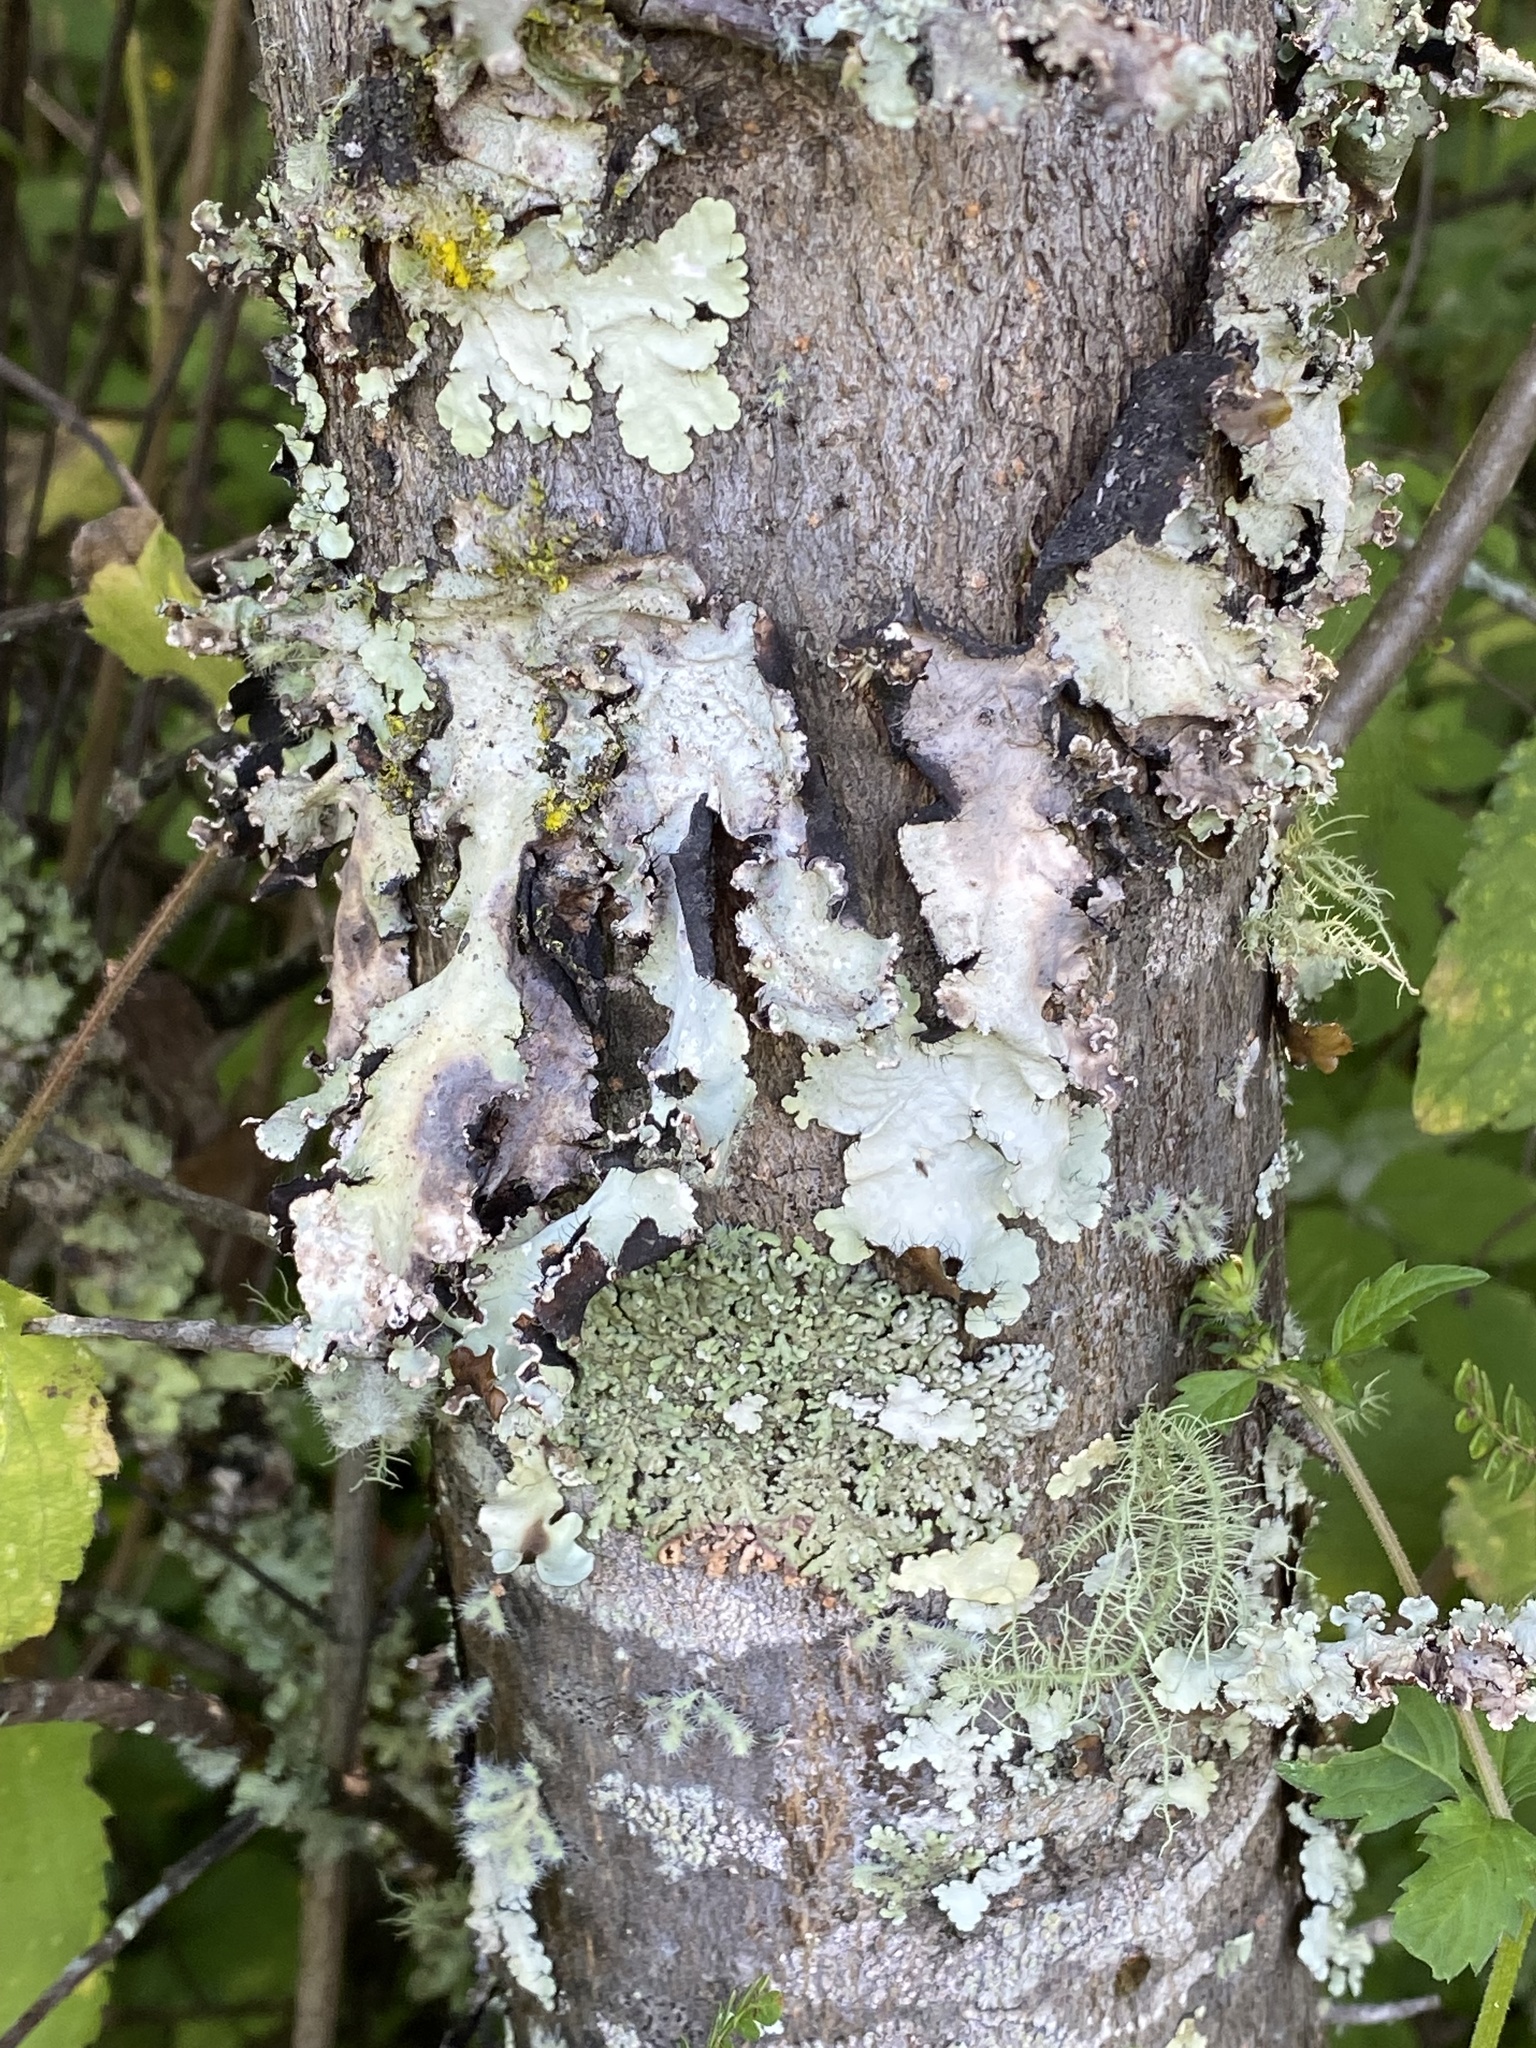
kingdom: Fungi
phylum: Ascomycota
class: Lecanoromycetes
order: Lecanorales
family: Parmeliaceae
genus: Parmotrema
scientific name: Parmotrema
